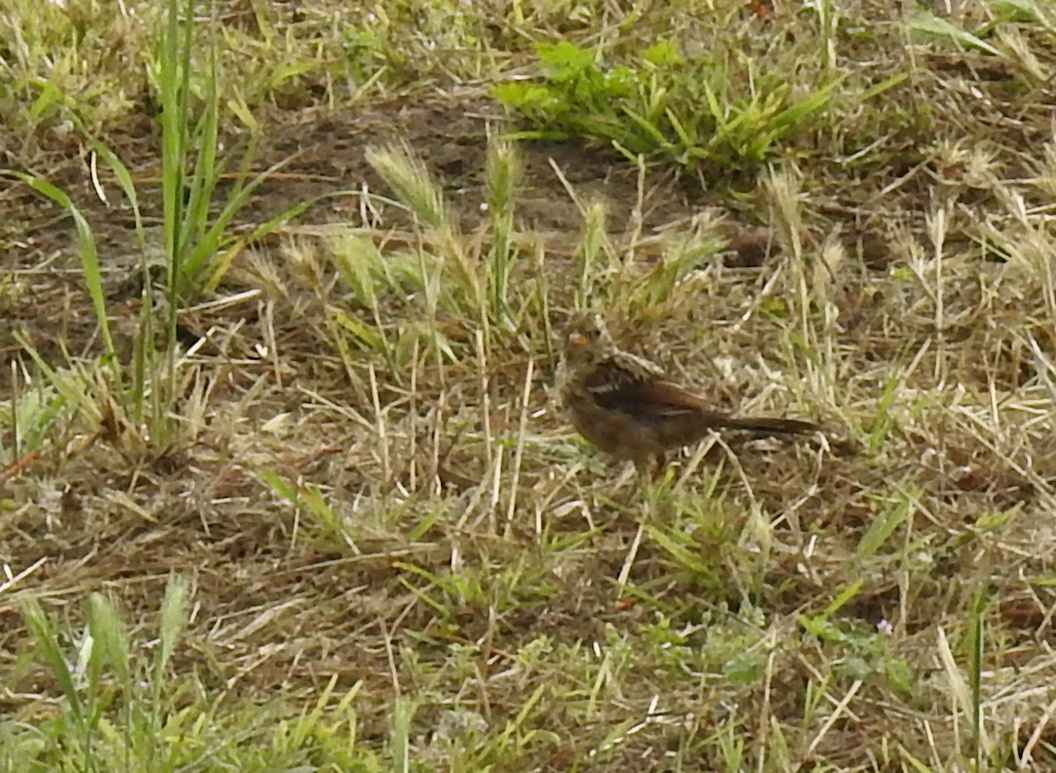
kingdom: Animalia
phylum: Chordata
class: Aves
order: Passeriformes
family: Passerellidae
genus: Zonotrichia
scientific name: Zonotrichia leucophrys
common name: White-crowned sparrow
